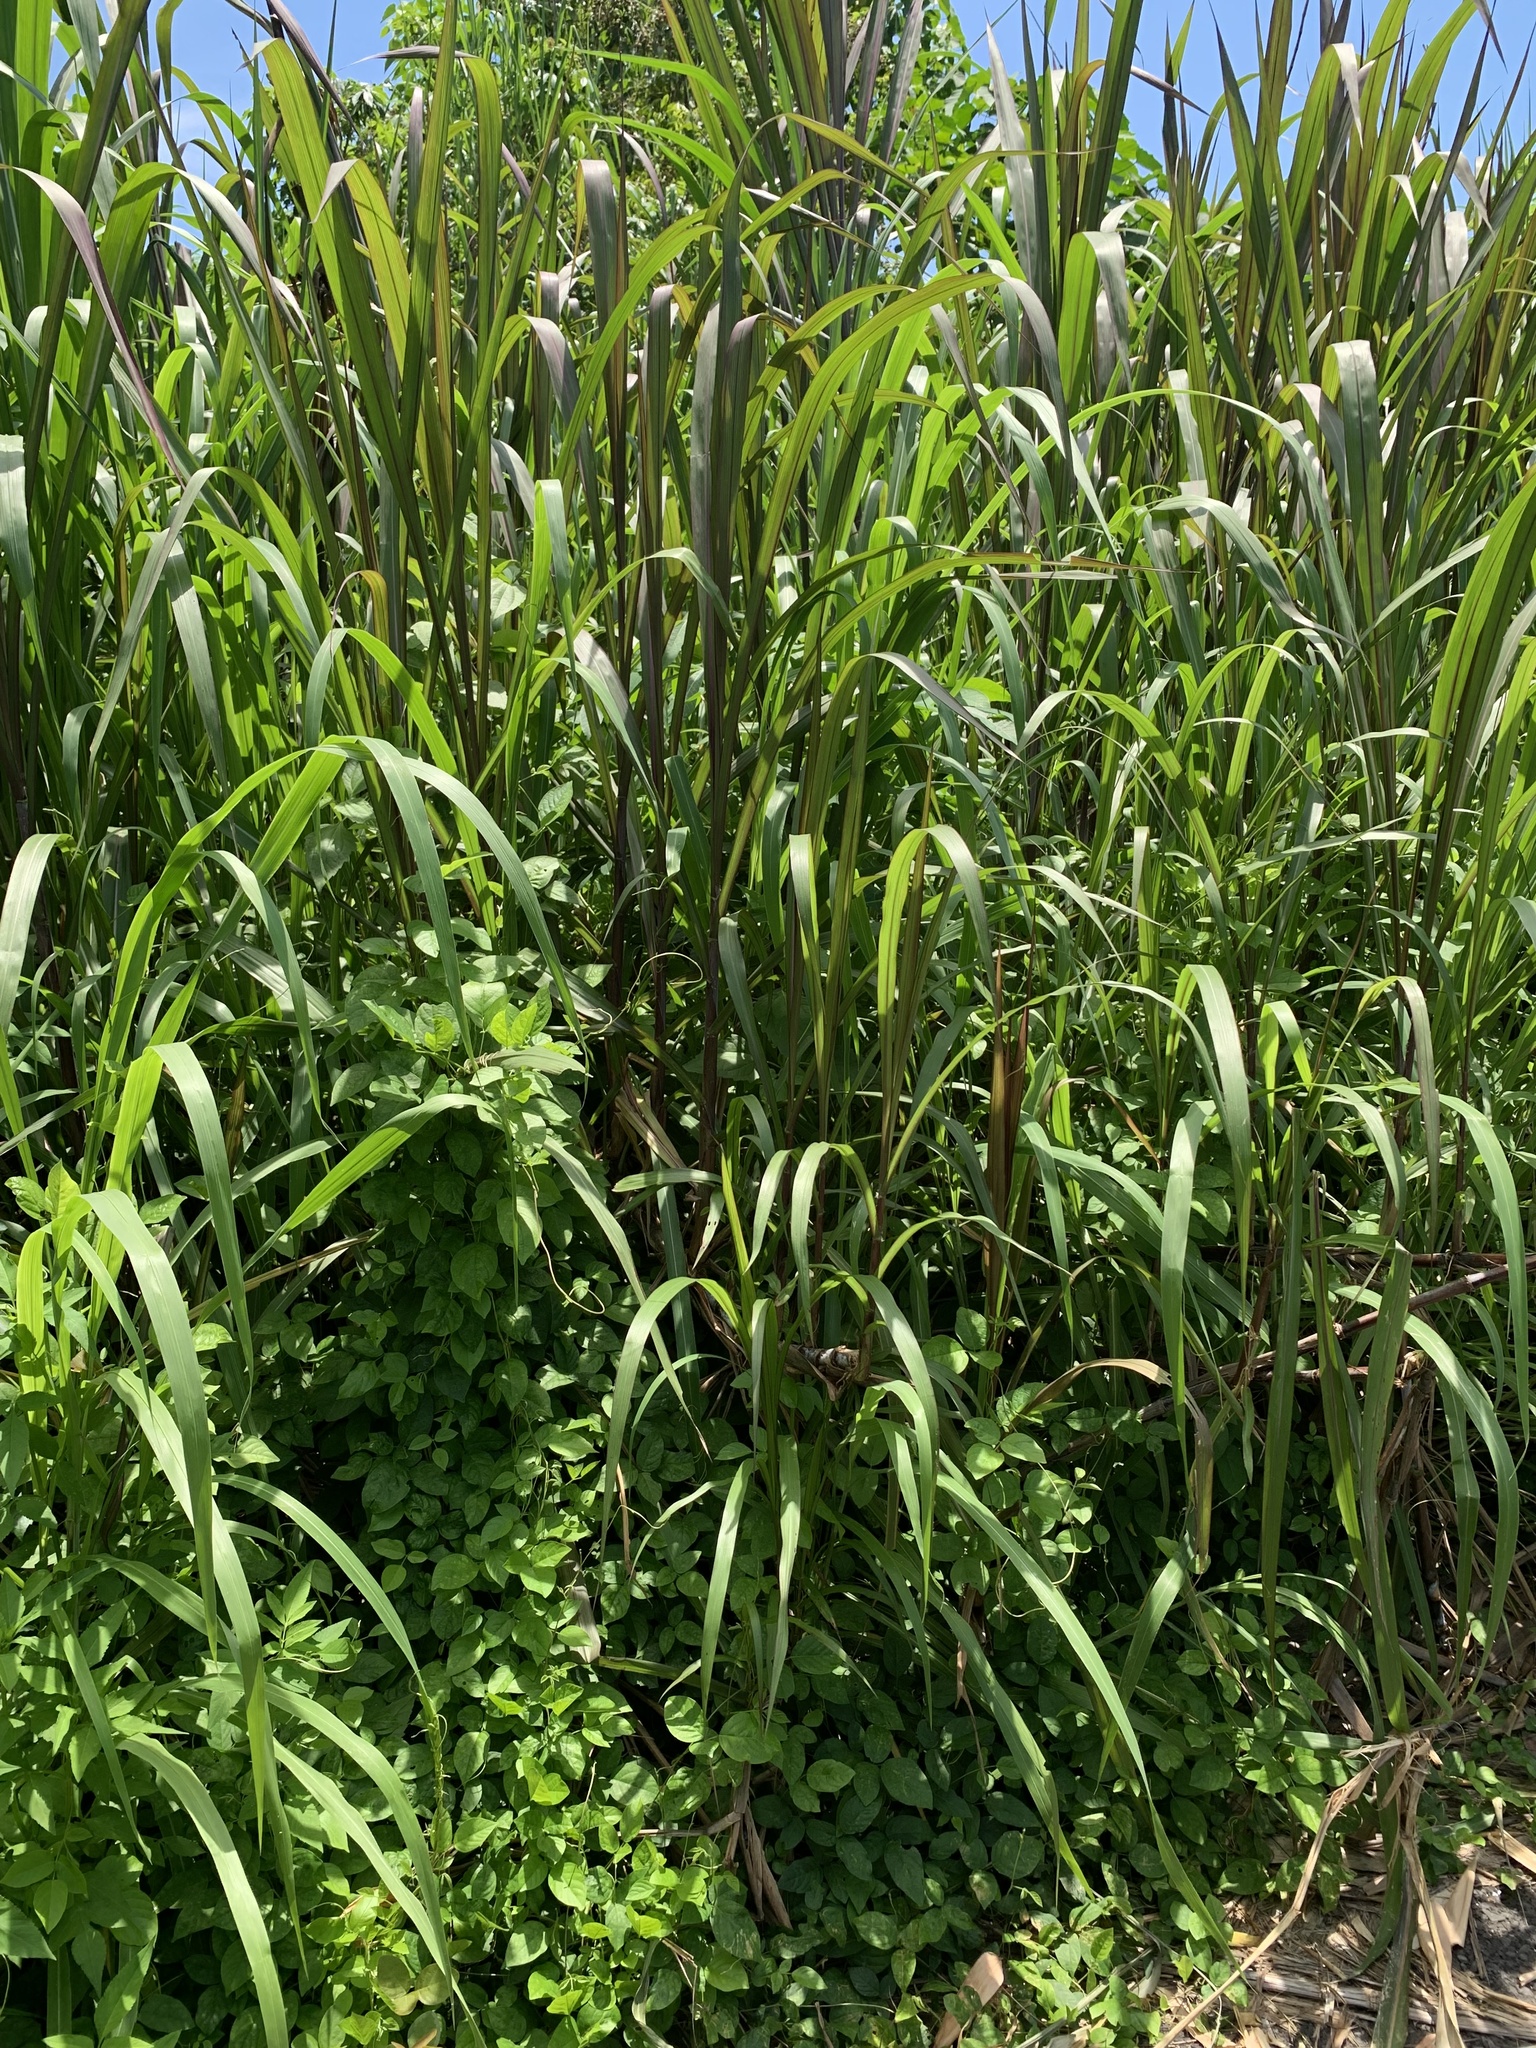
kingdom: Plantae
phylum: Tracheophyta
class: Liliopsida
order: Poales
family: Poaceae
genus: Cenchrus
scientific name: Cenchrus purpureus
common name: Elephant grass
